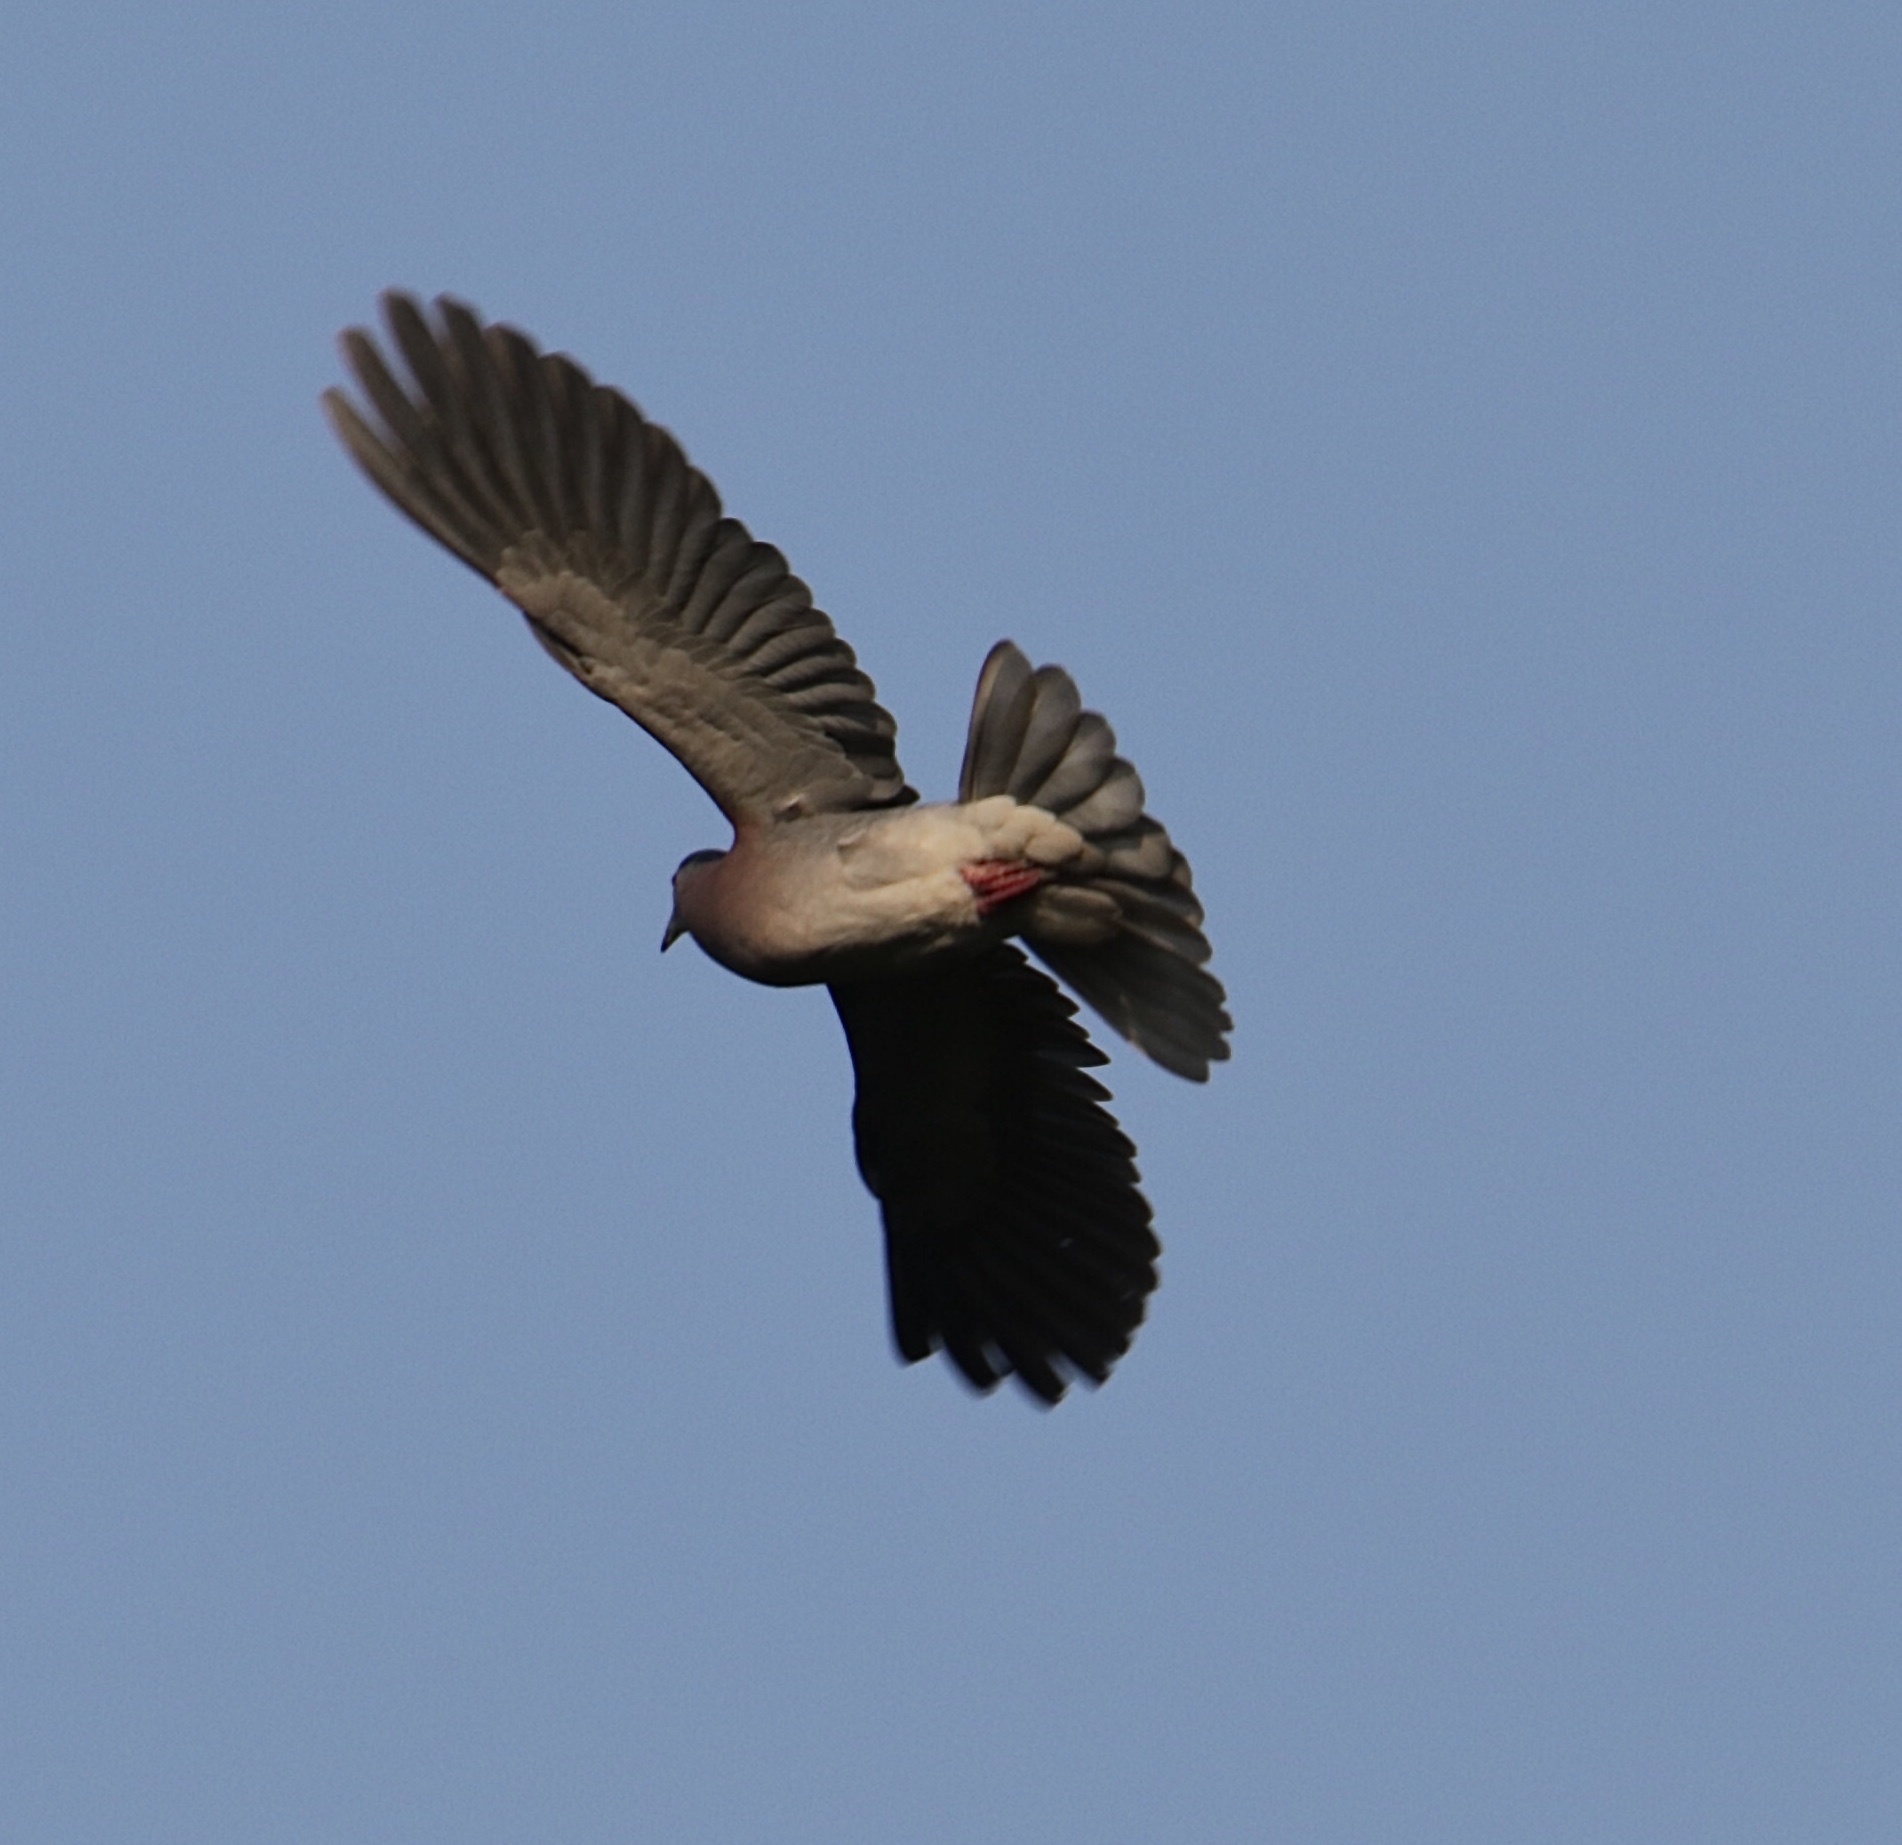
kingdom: Animalia
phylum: Chordata
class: Aves
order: Columbiformes
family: Columbidae
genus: Patagioenas
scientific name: Patagioenas cayennensis
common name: Pale-vented pigeon
